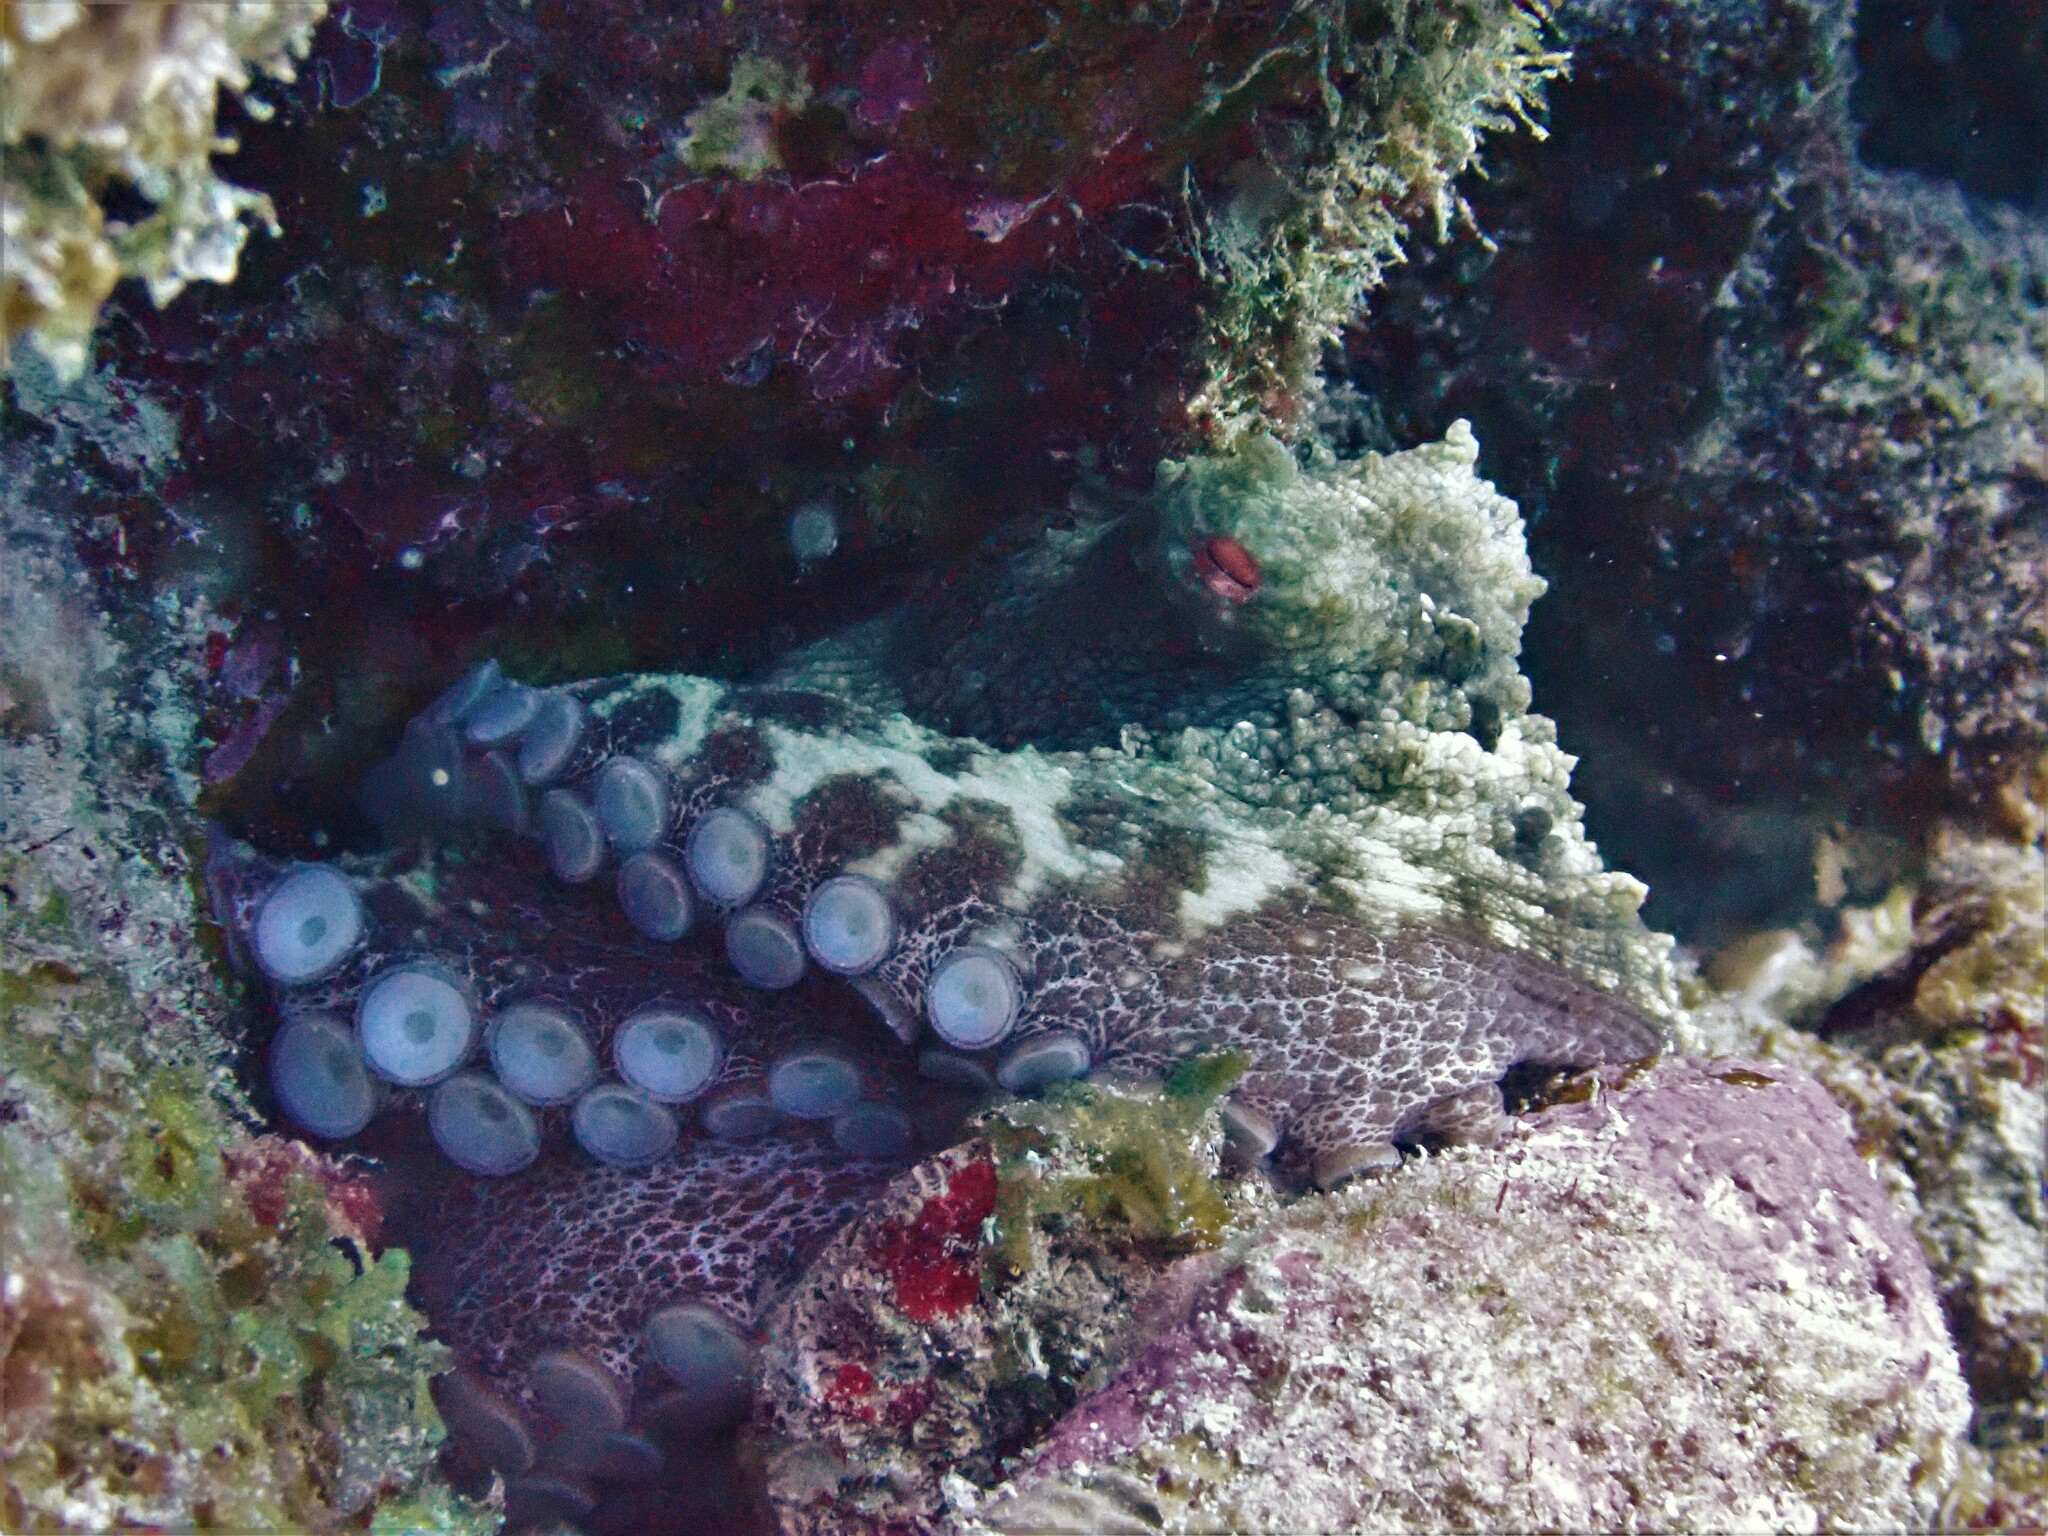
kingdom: Animalia
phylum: Mollusca
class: Cephalopoda
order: Octopoda
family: Octopodidae
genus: Octopus
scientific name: Octopus insularis
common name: Brazil reef octopus
